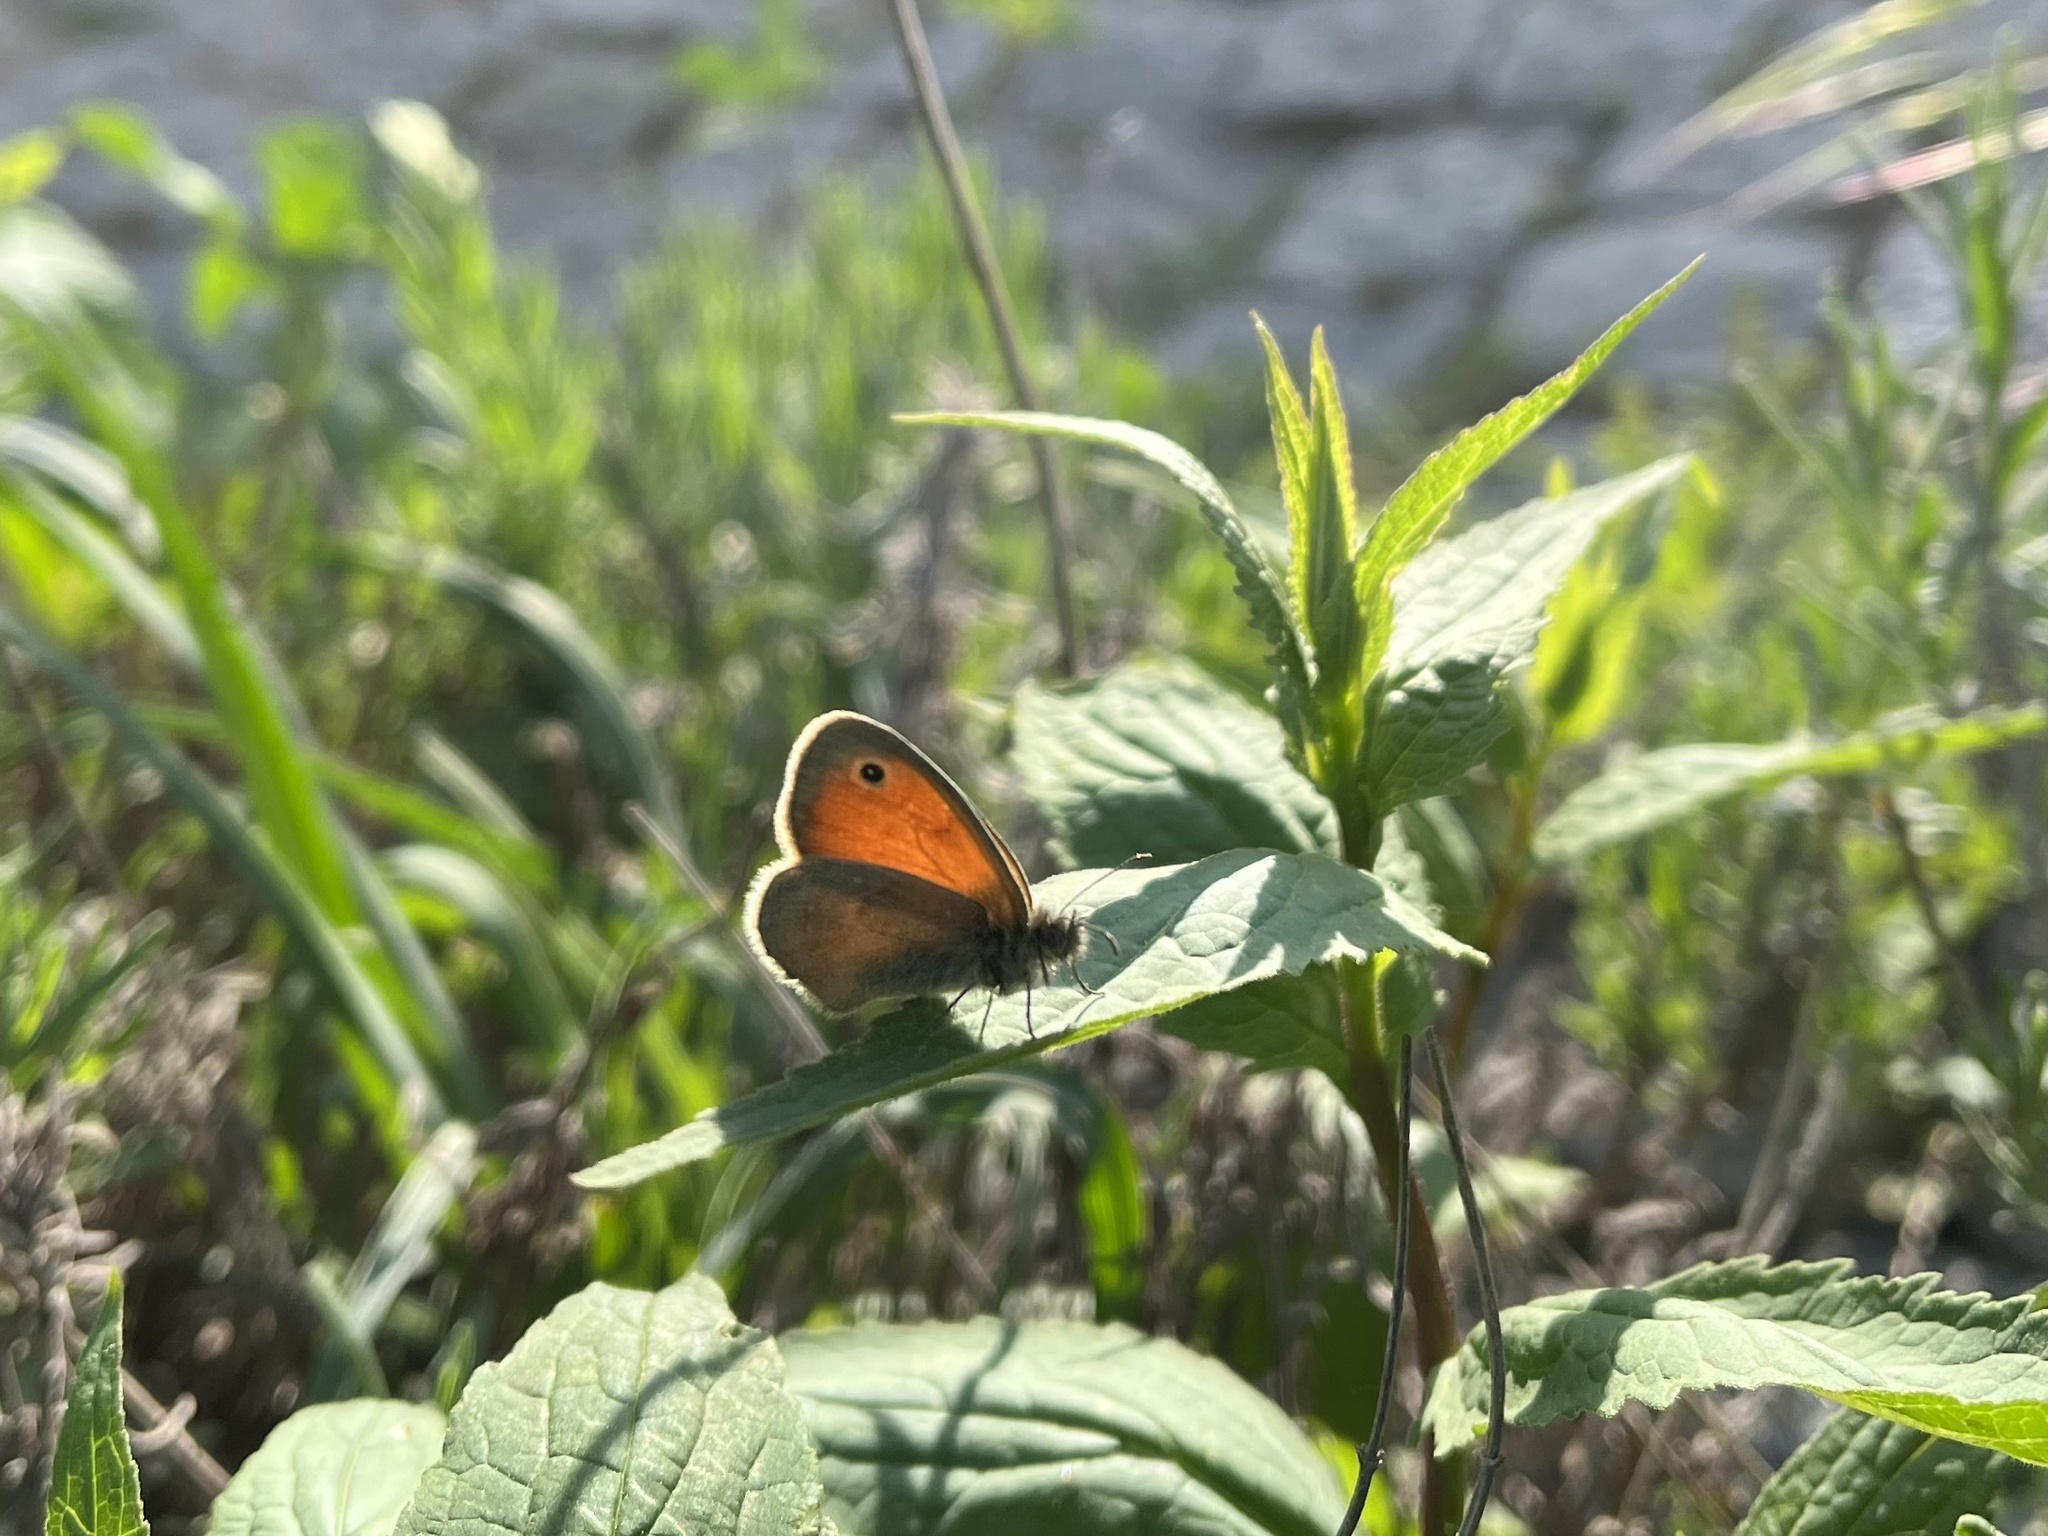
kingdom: Animalia
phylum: Arthropoda
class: Insecta
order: Lepidoptera
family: Nymphalidae
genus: Coenonympha
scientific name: Coenonympha pamphilus
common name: Small heath
